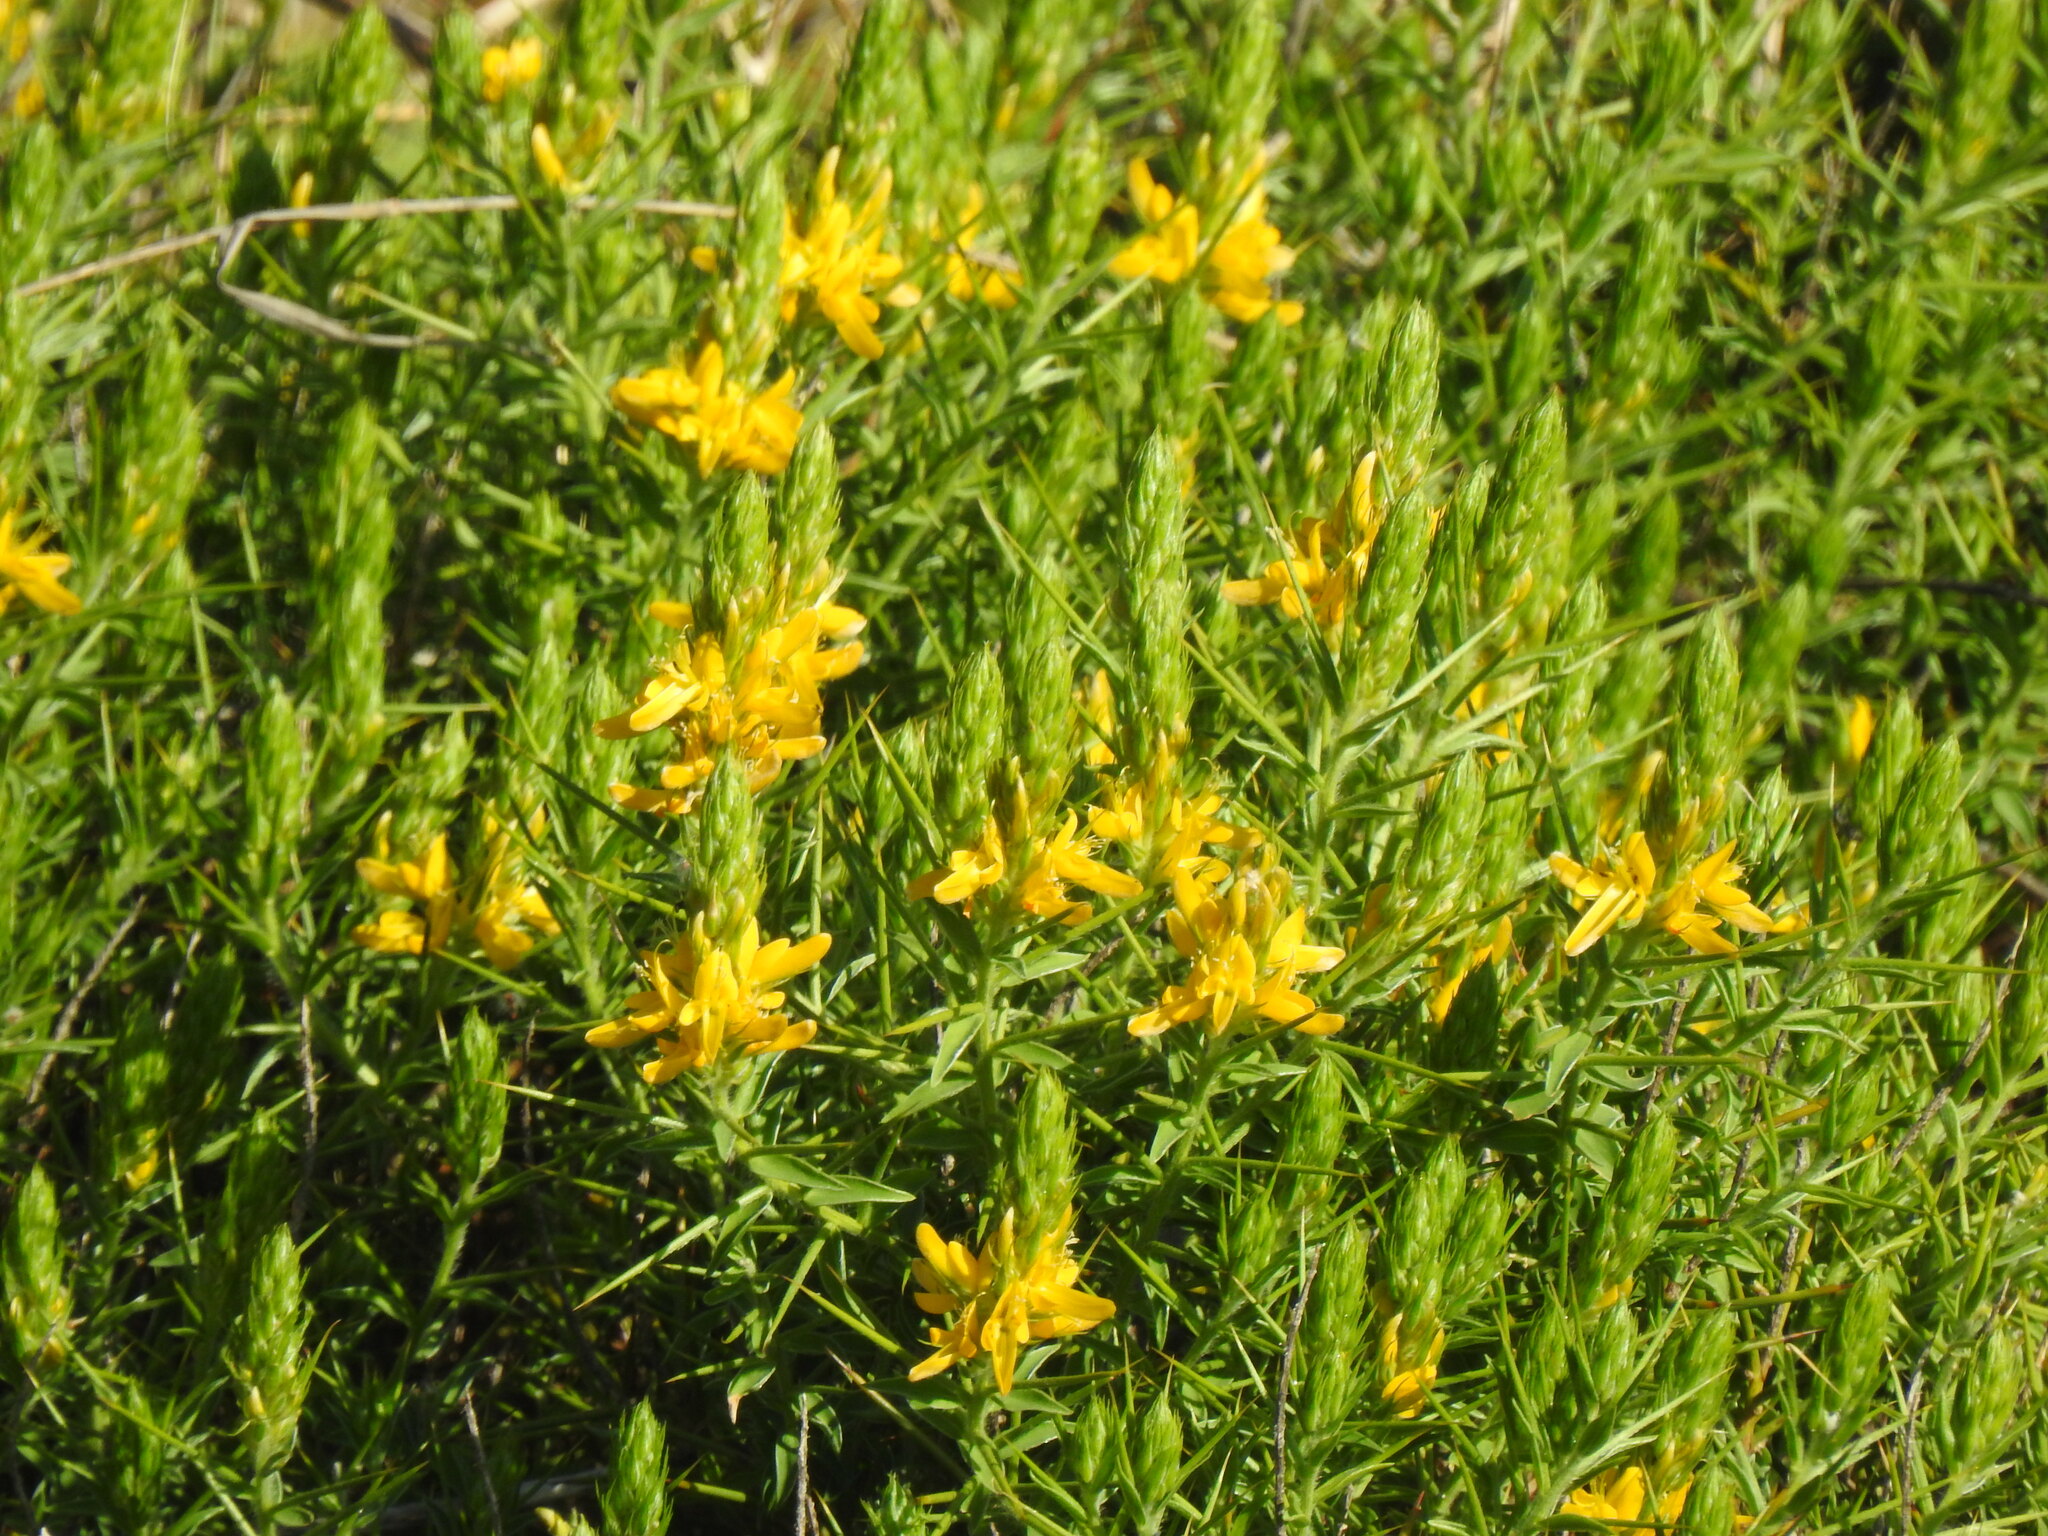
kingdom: Plantae
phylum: Tracheophyta
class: Magnoliopsida
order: Fabales
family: Fabaceae
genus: Genista
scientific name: Genista hirsuta
